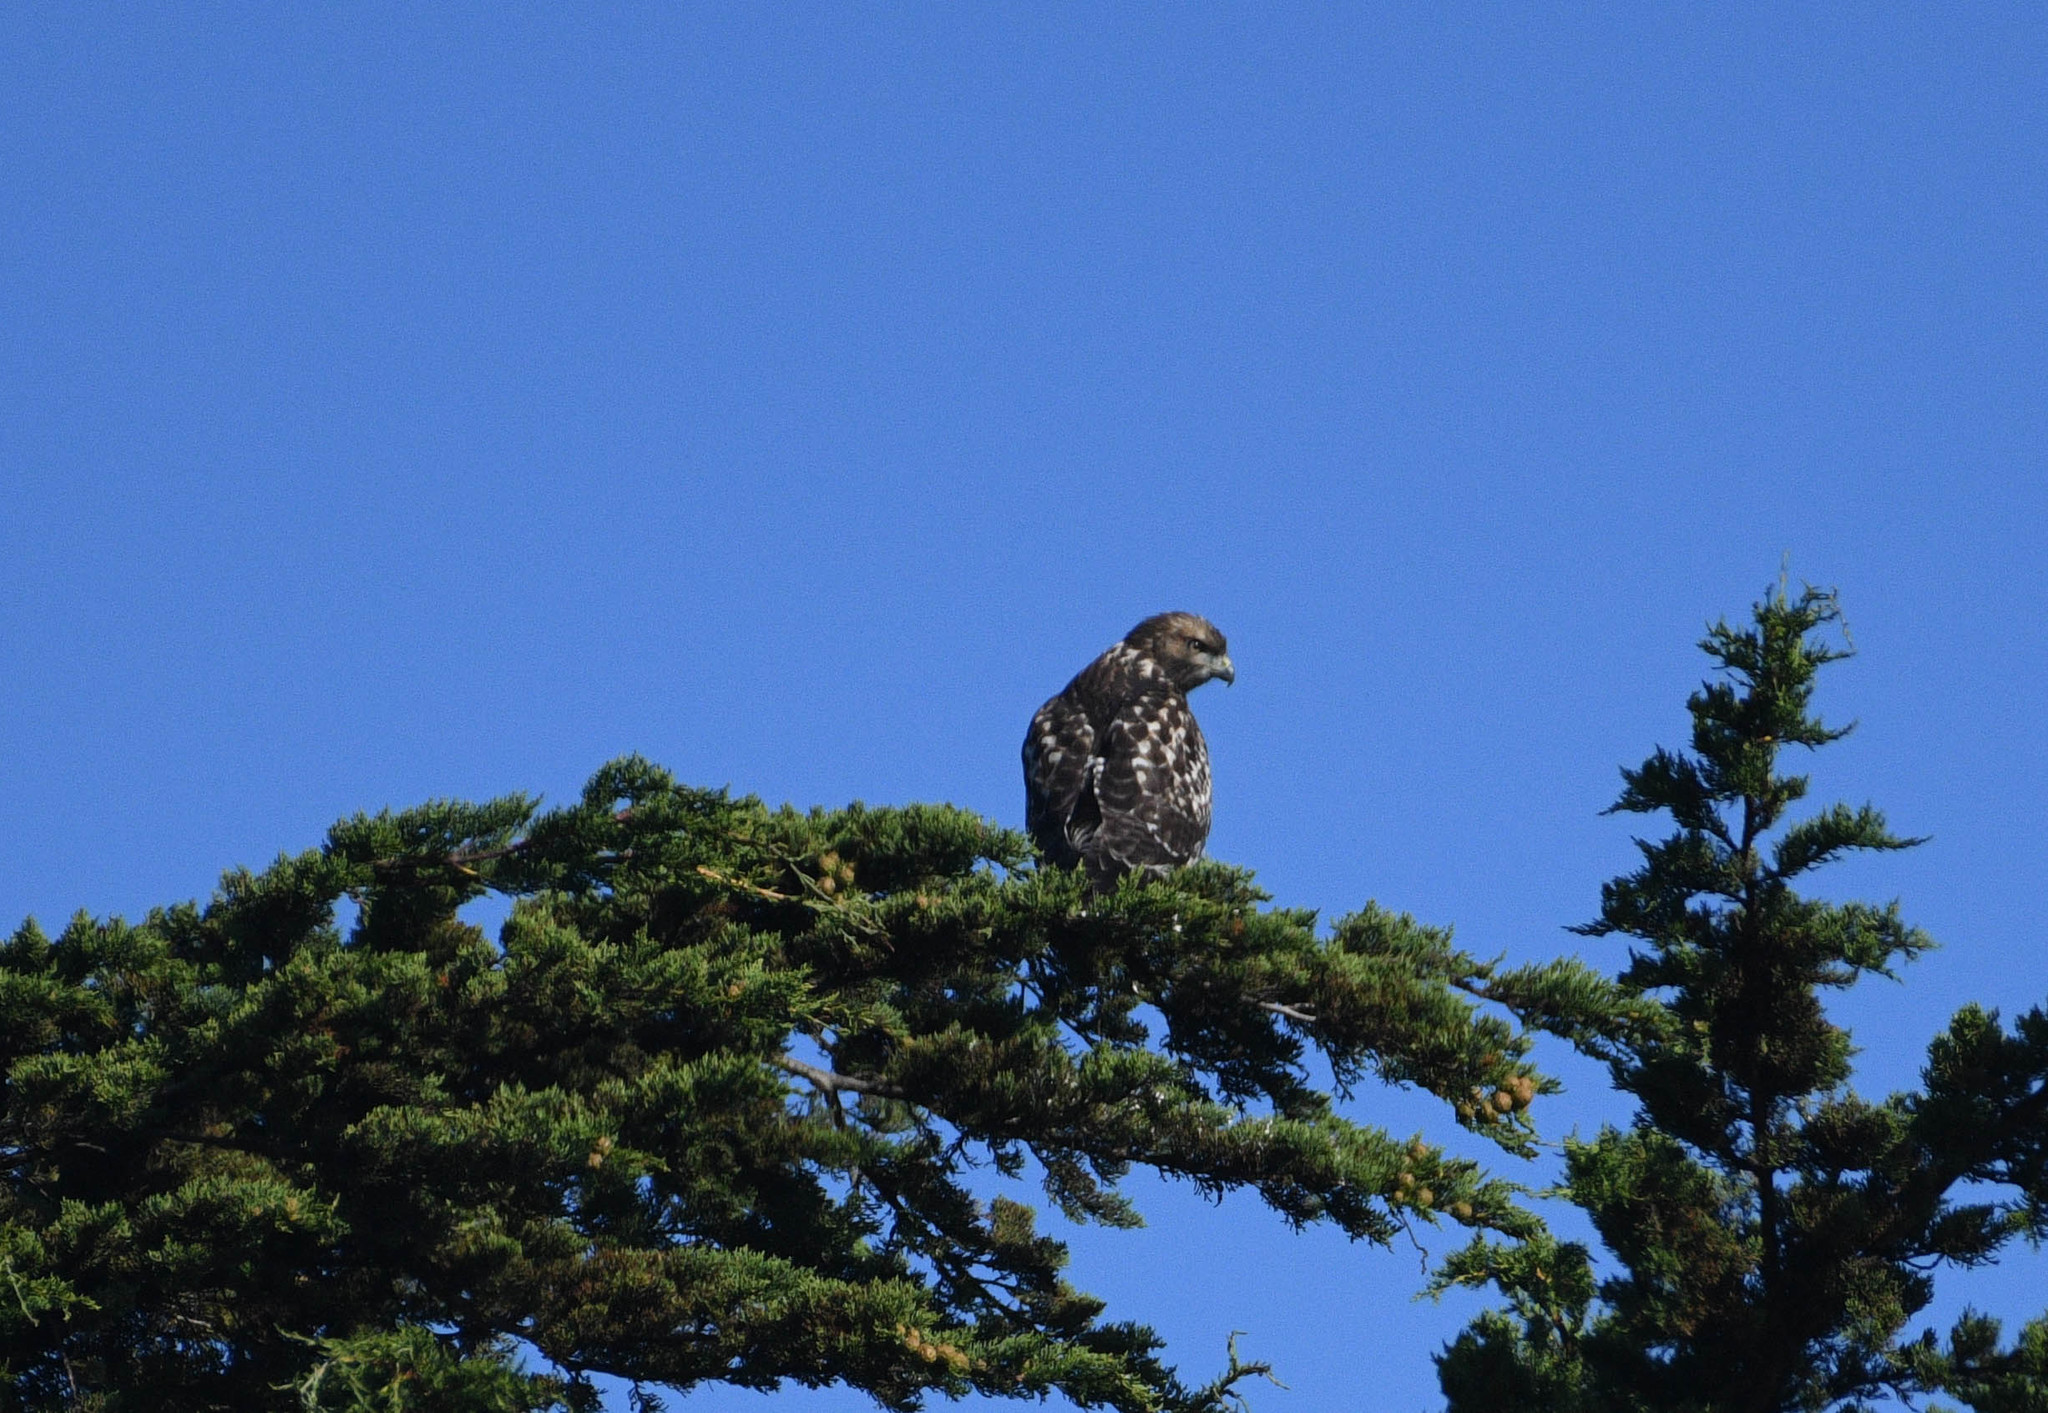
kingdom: Animalia
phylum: Chordata
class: Aves
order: Accipitriformes
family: Accipitridae
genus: Buteo
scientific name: Buteo lineatus
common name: Red-shouldered hawk
